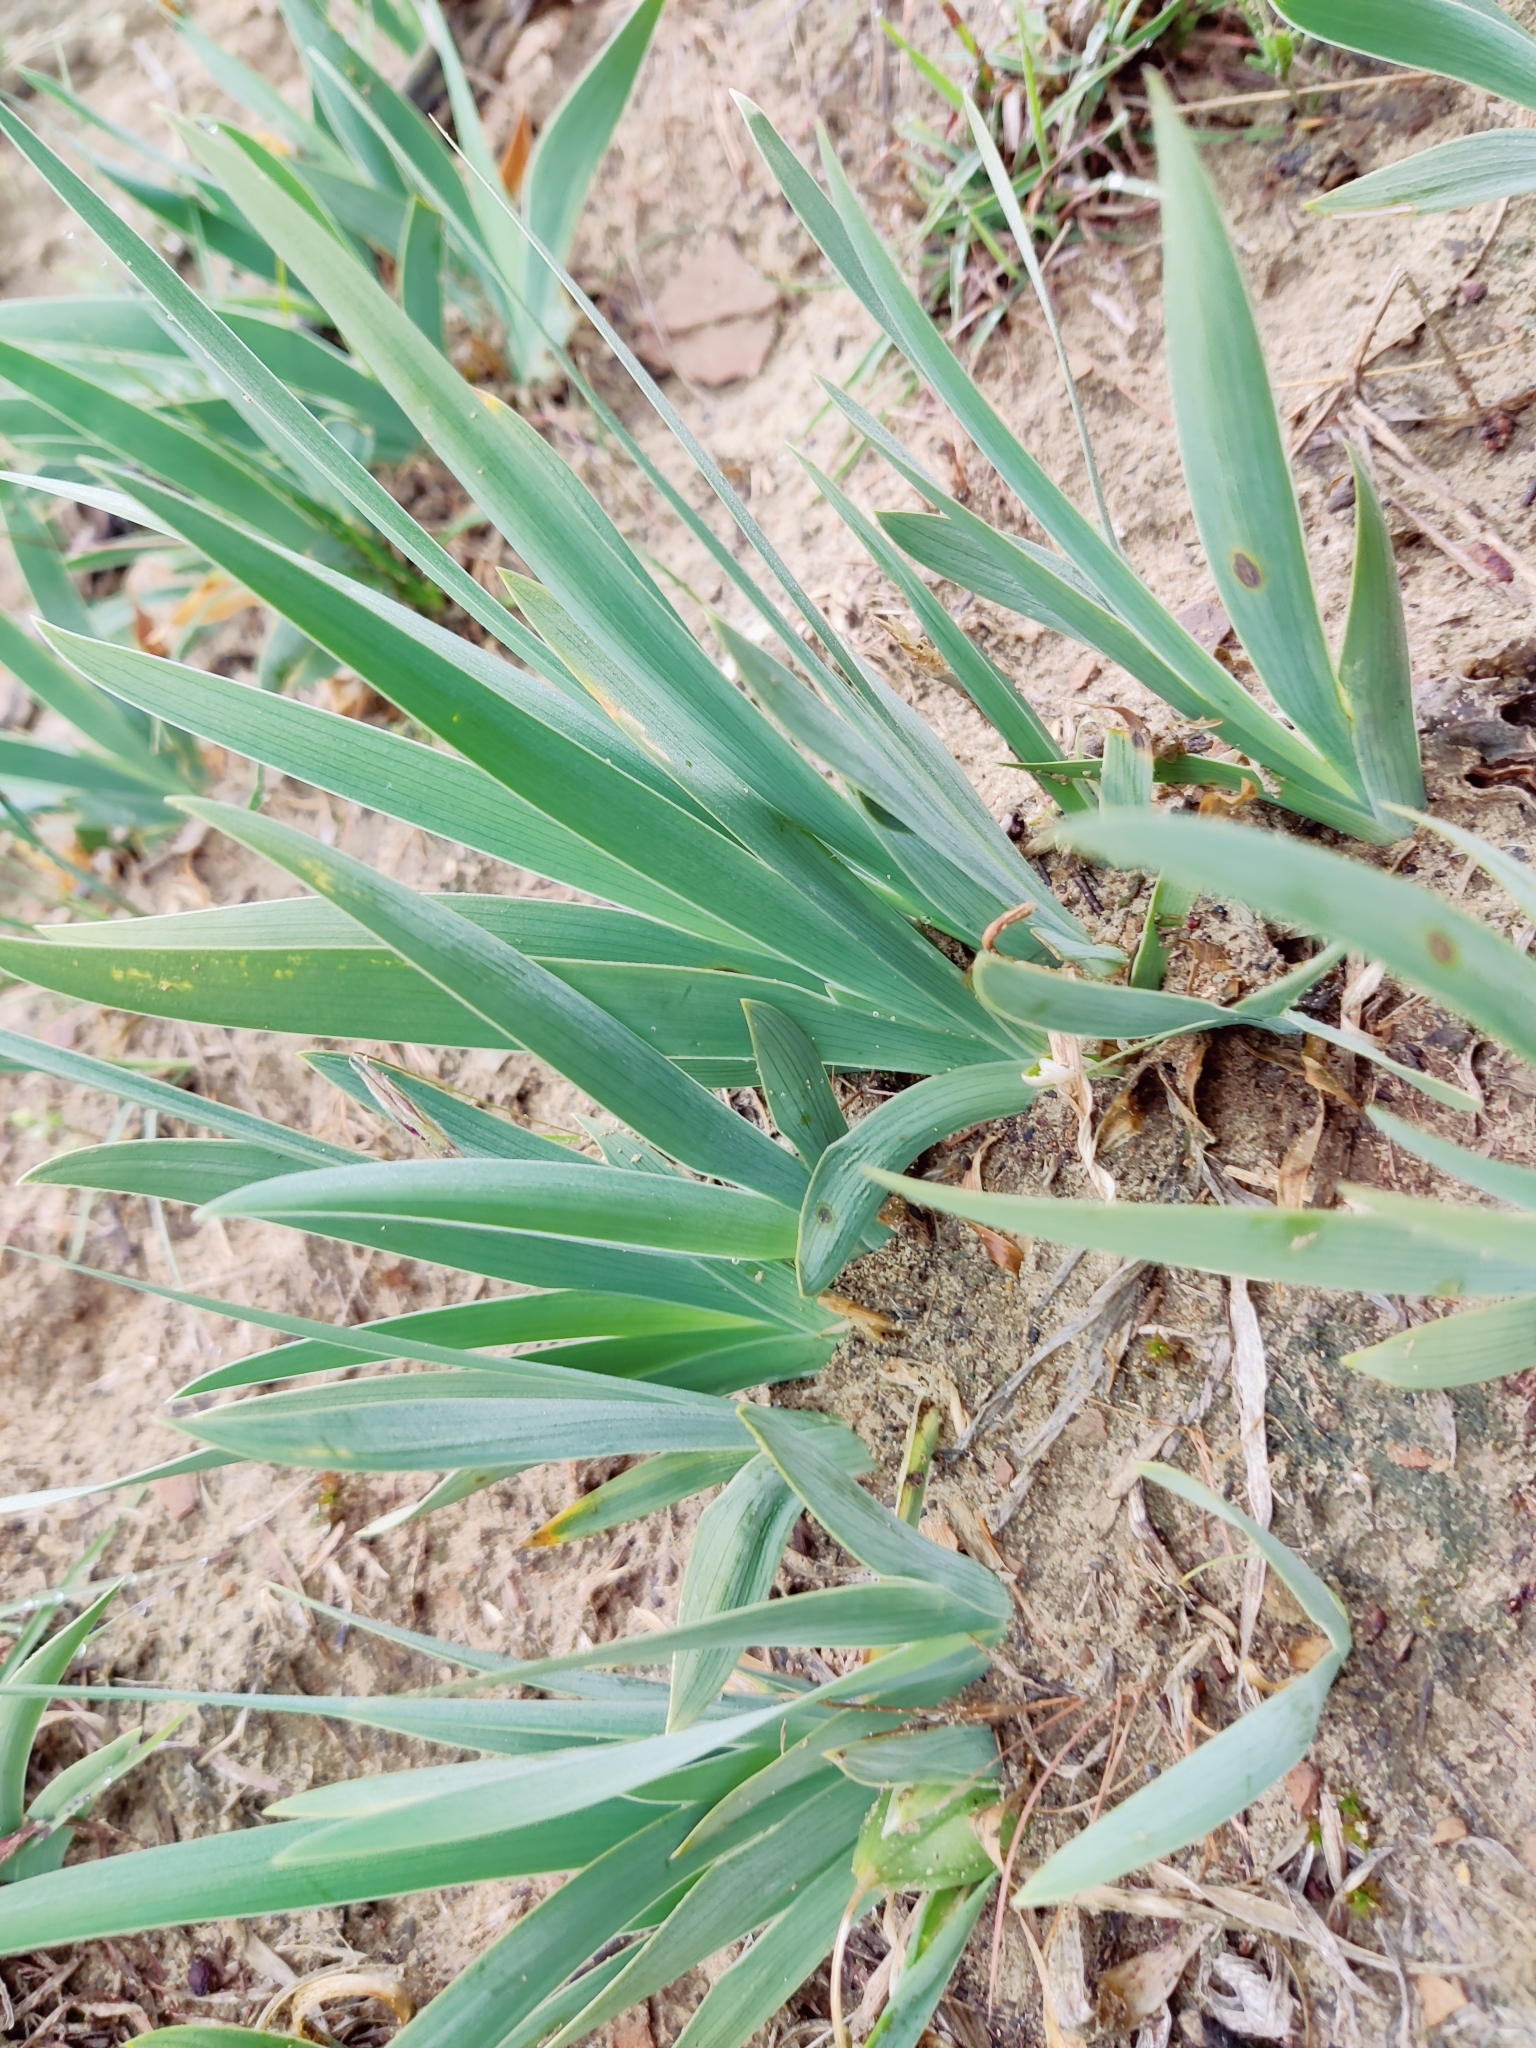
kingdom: Plantae
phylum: Tracheophyta
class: Liliopsida
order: Asparagales
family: Iridaceae
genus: Iris
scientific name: Iris pumila
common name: Dwarf iris
